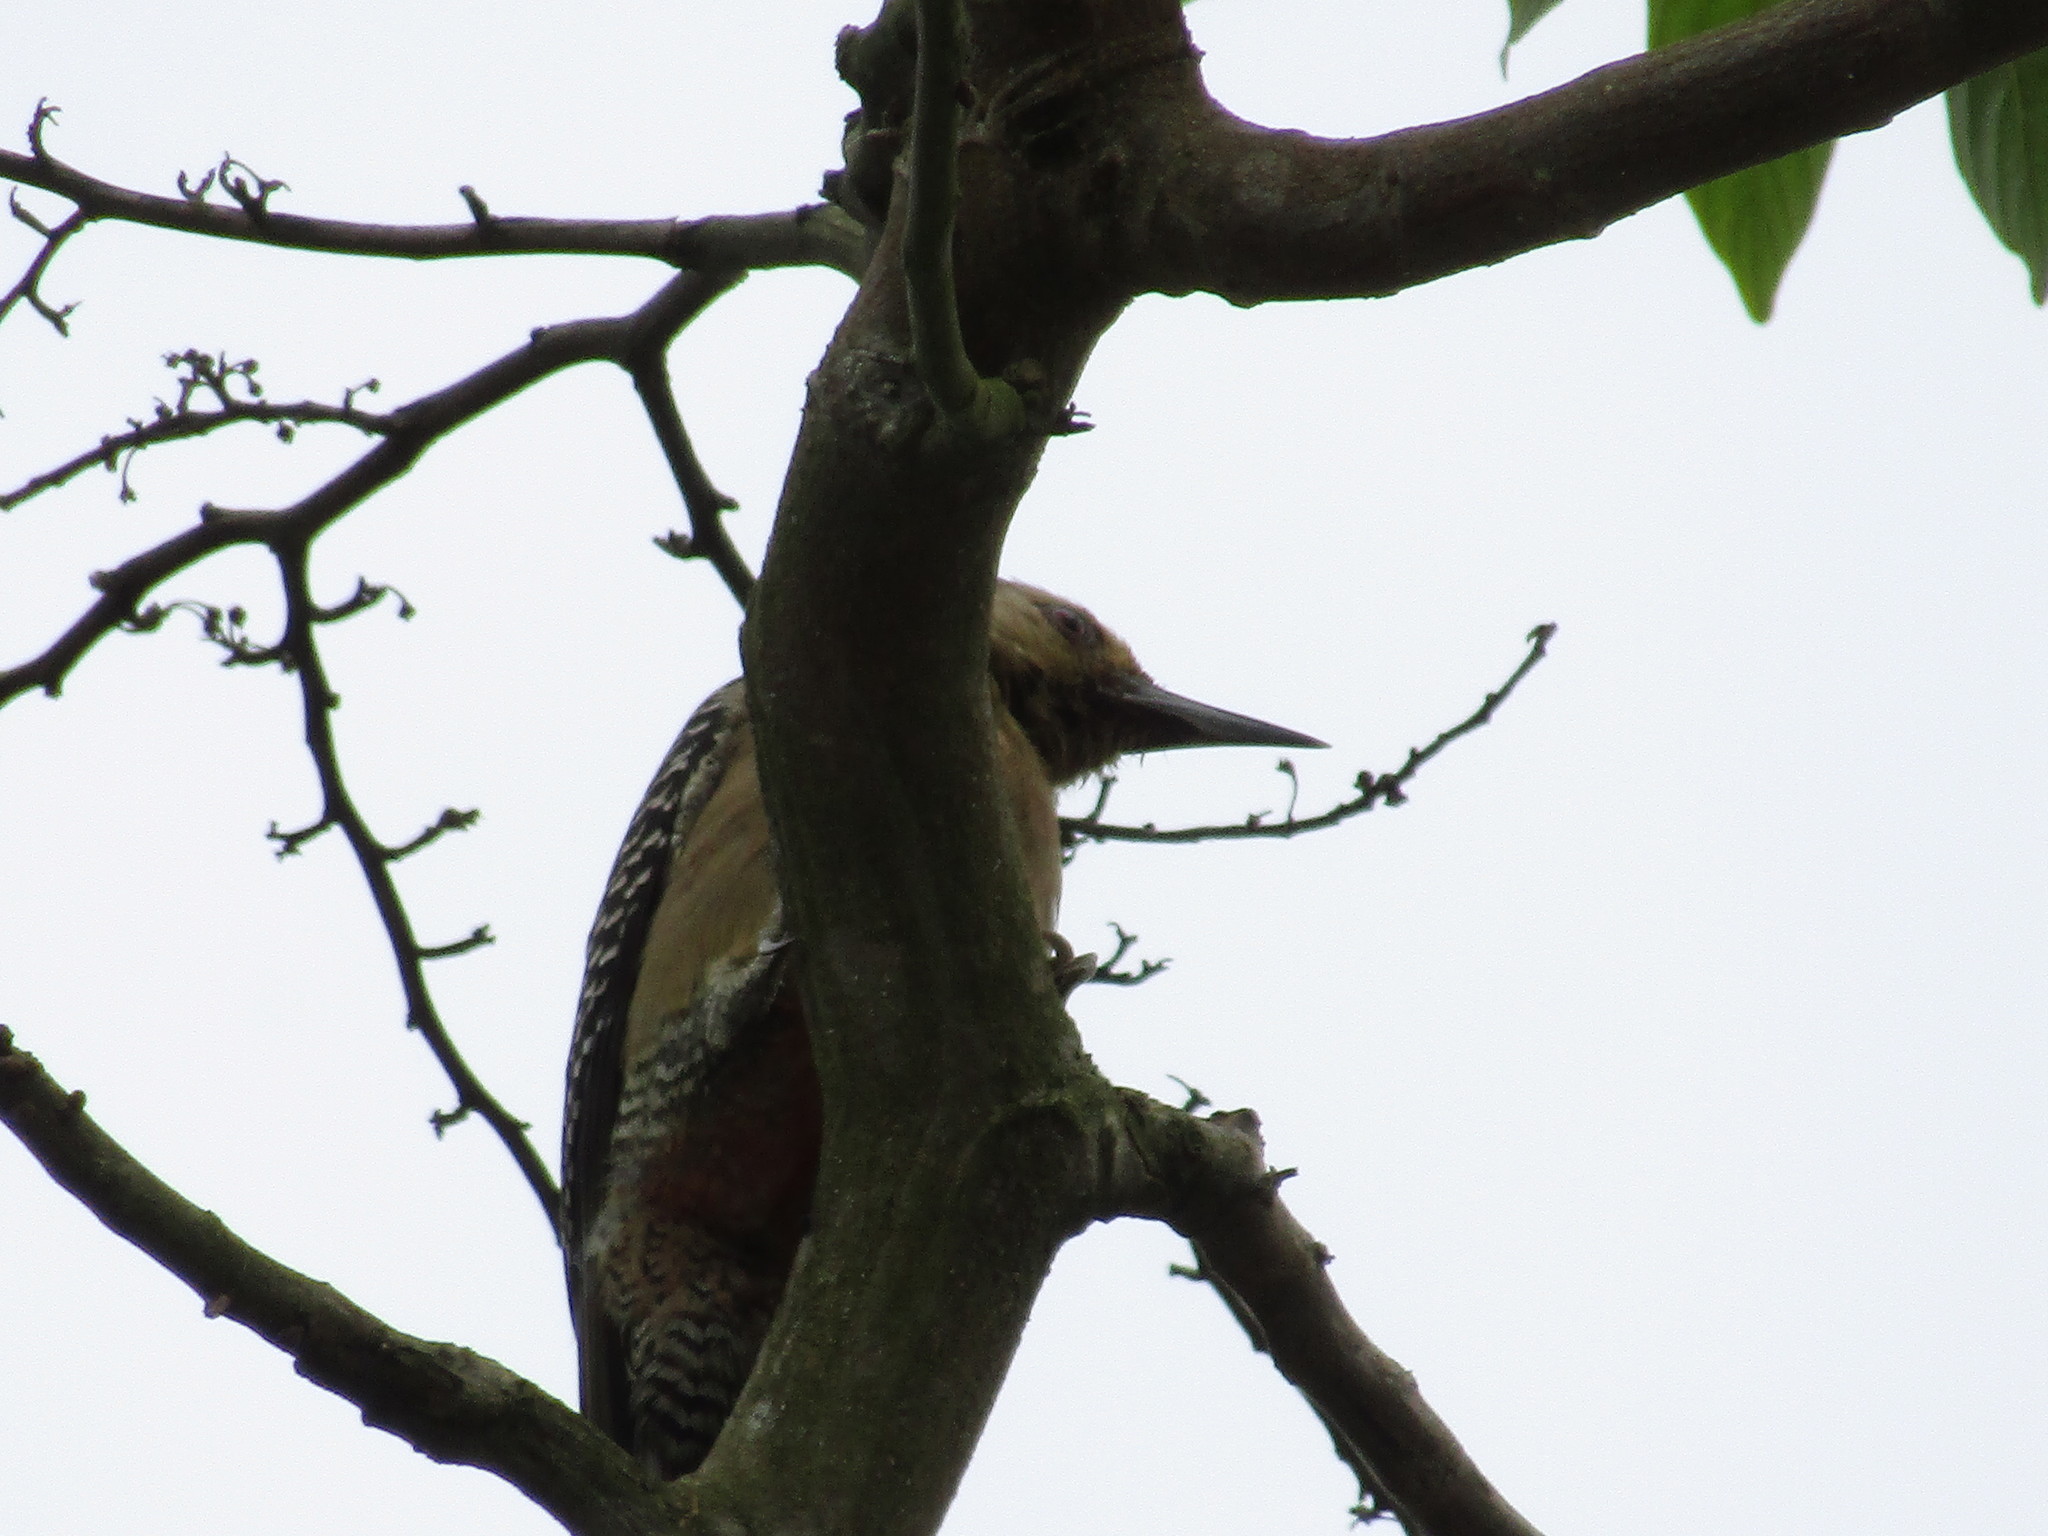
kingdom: Animalia
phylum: Chordata
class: Aves
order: Piciformes
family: Picidae
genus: Melanerpes
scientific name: Melanerpes aurifrons
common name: Golden-fronted woodpecker
